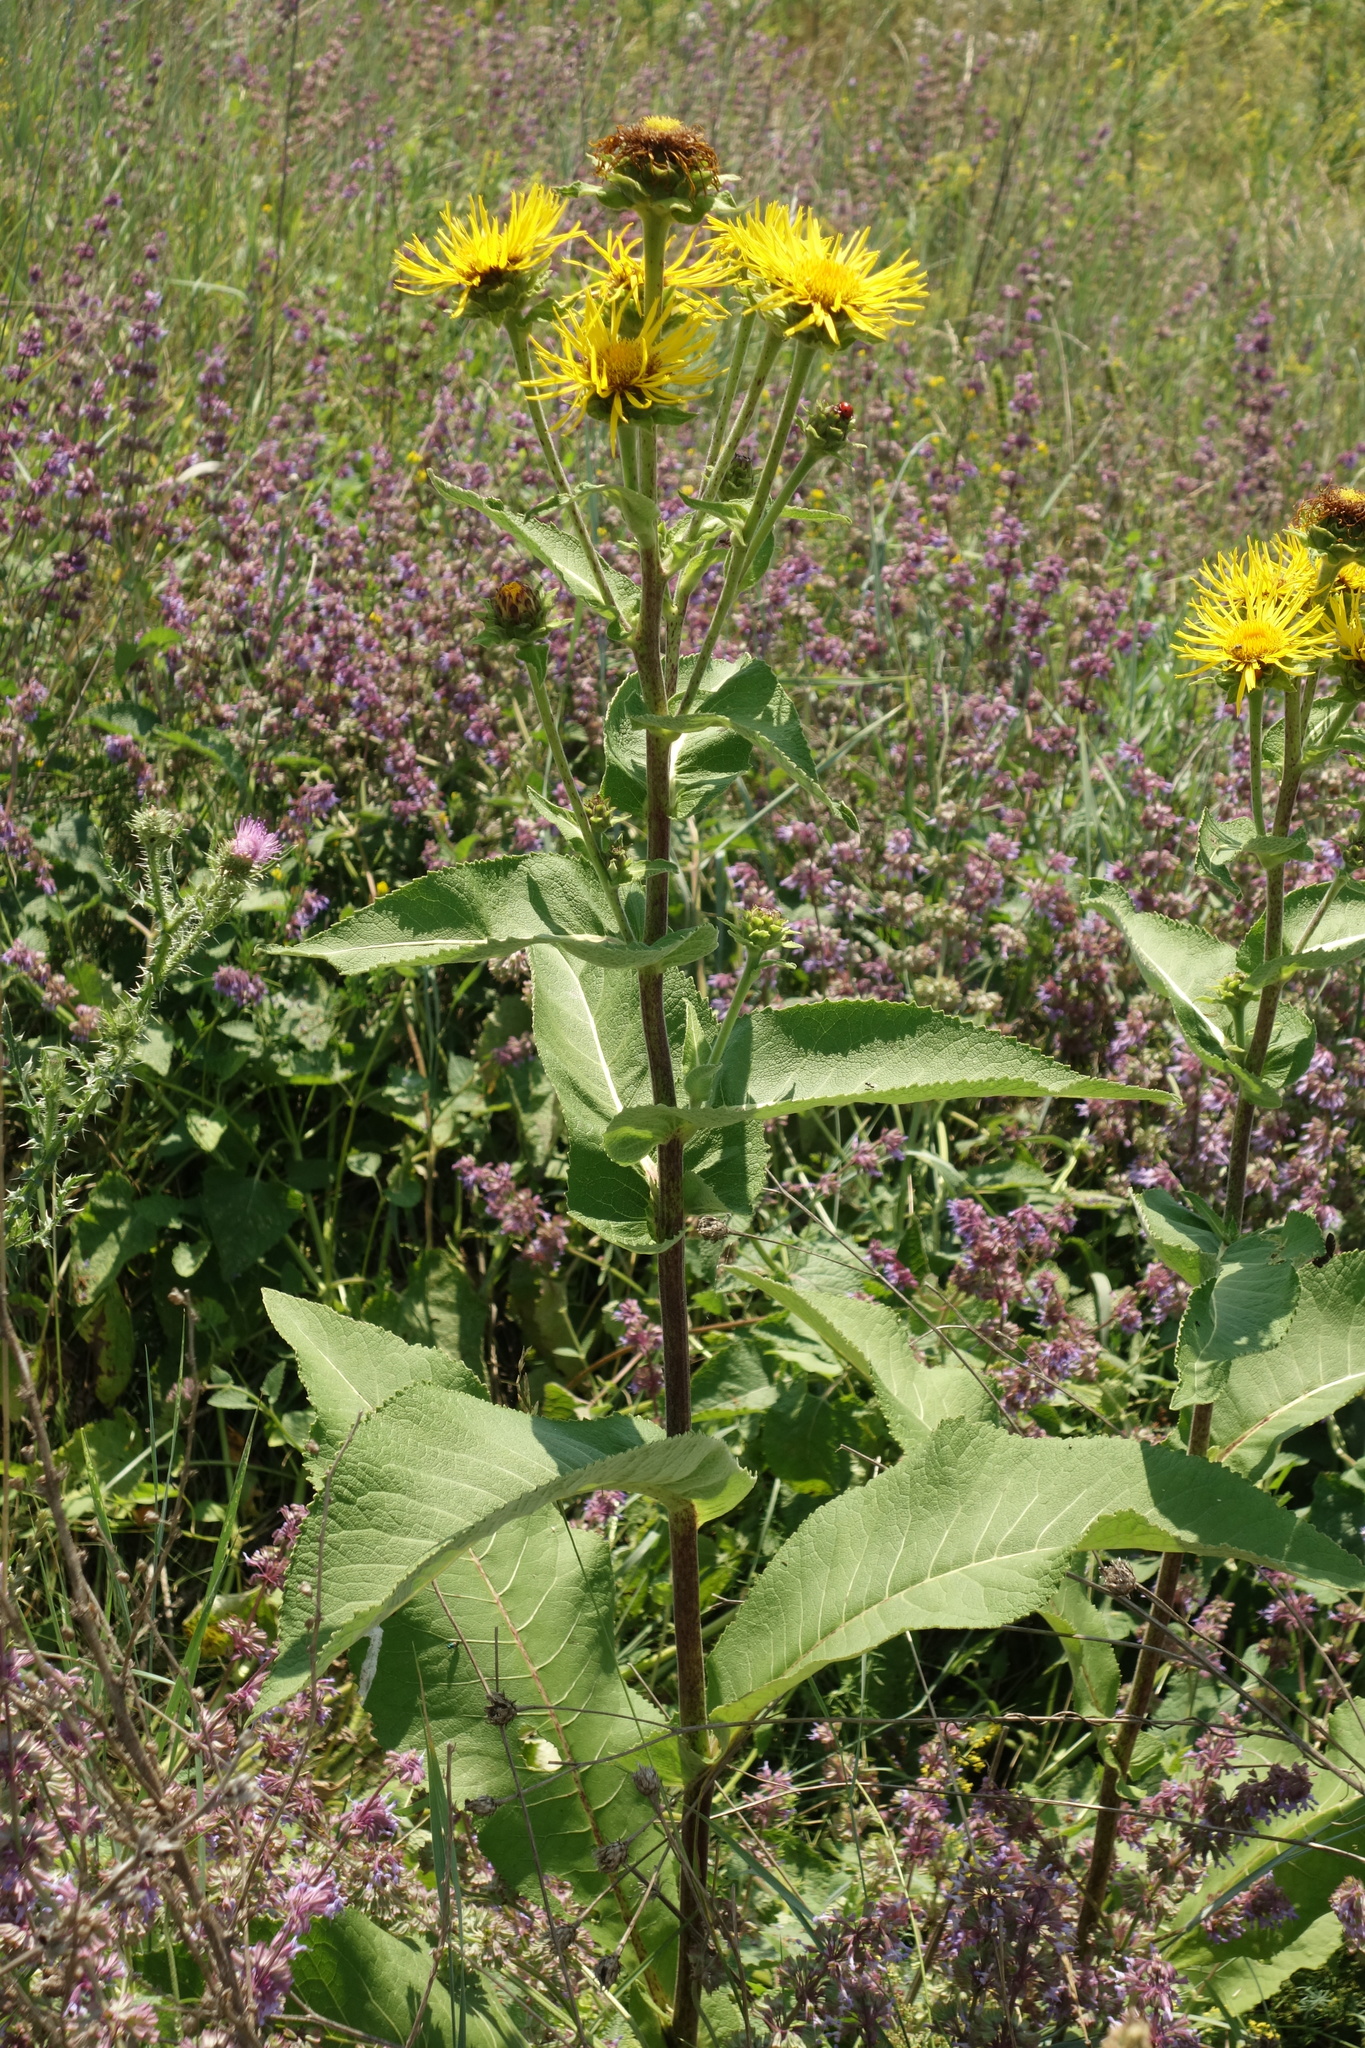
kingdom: Plantae
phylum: Tracheophyta
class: Magnoliopsida
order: Asterales
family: Asteraceae
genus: Inula
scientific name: Inula helenium
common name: Elecampane
